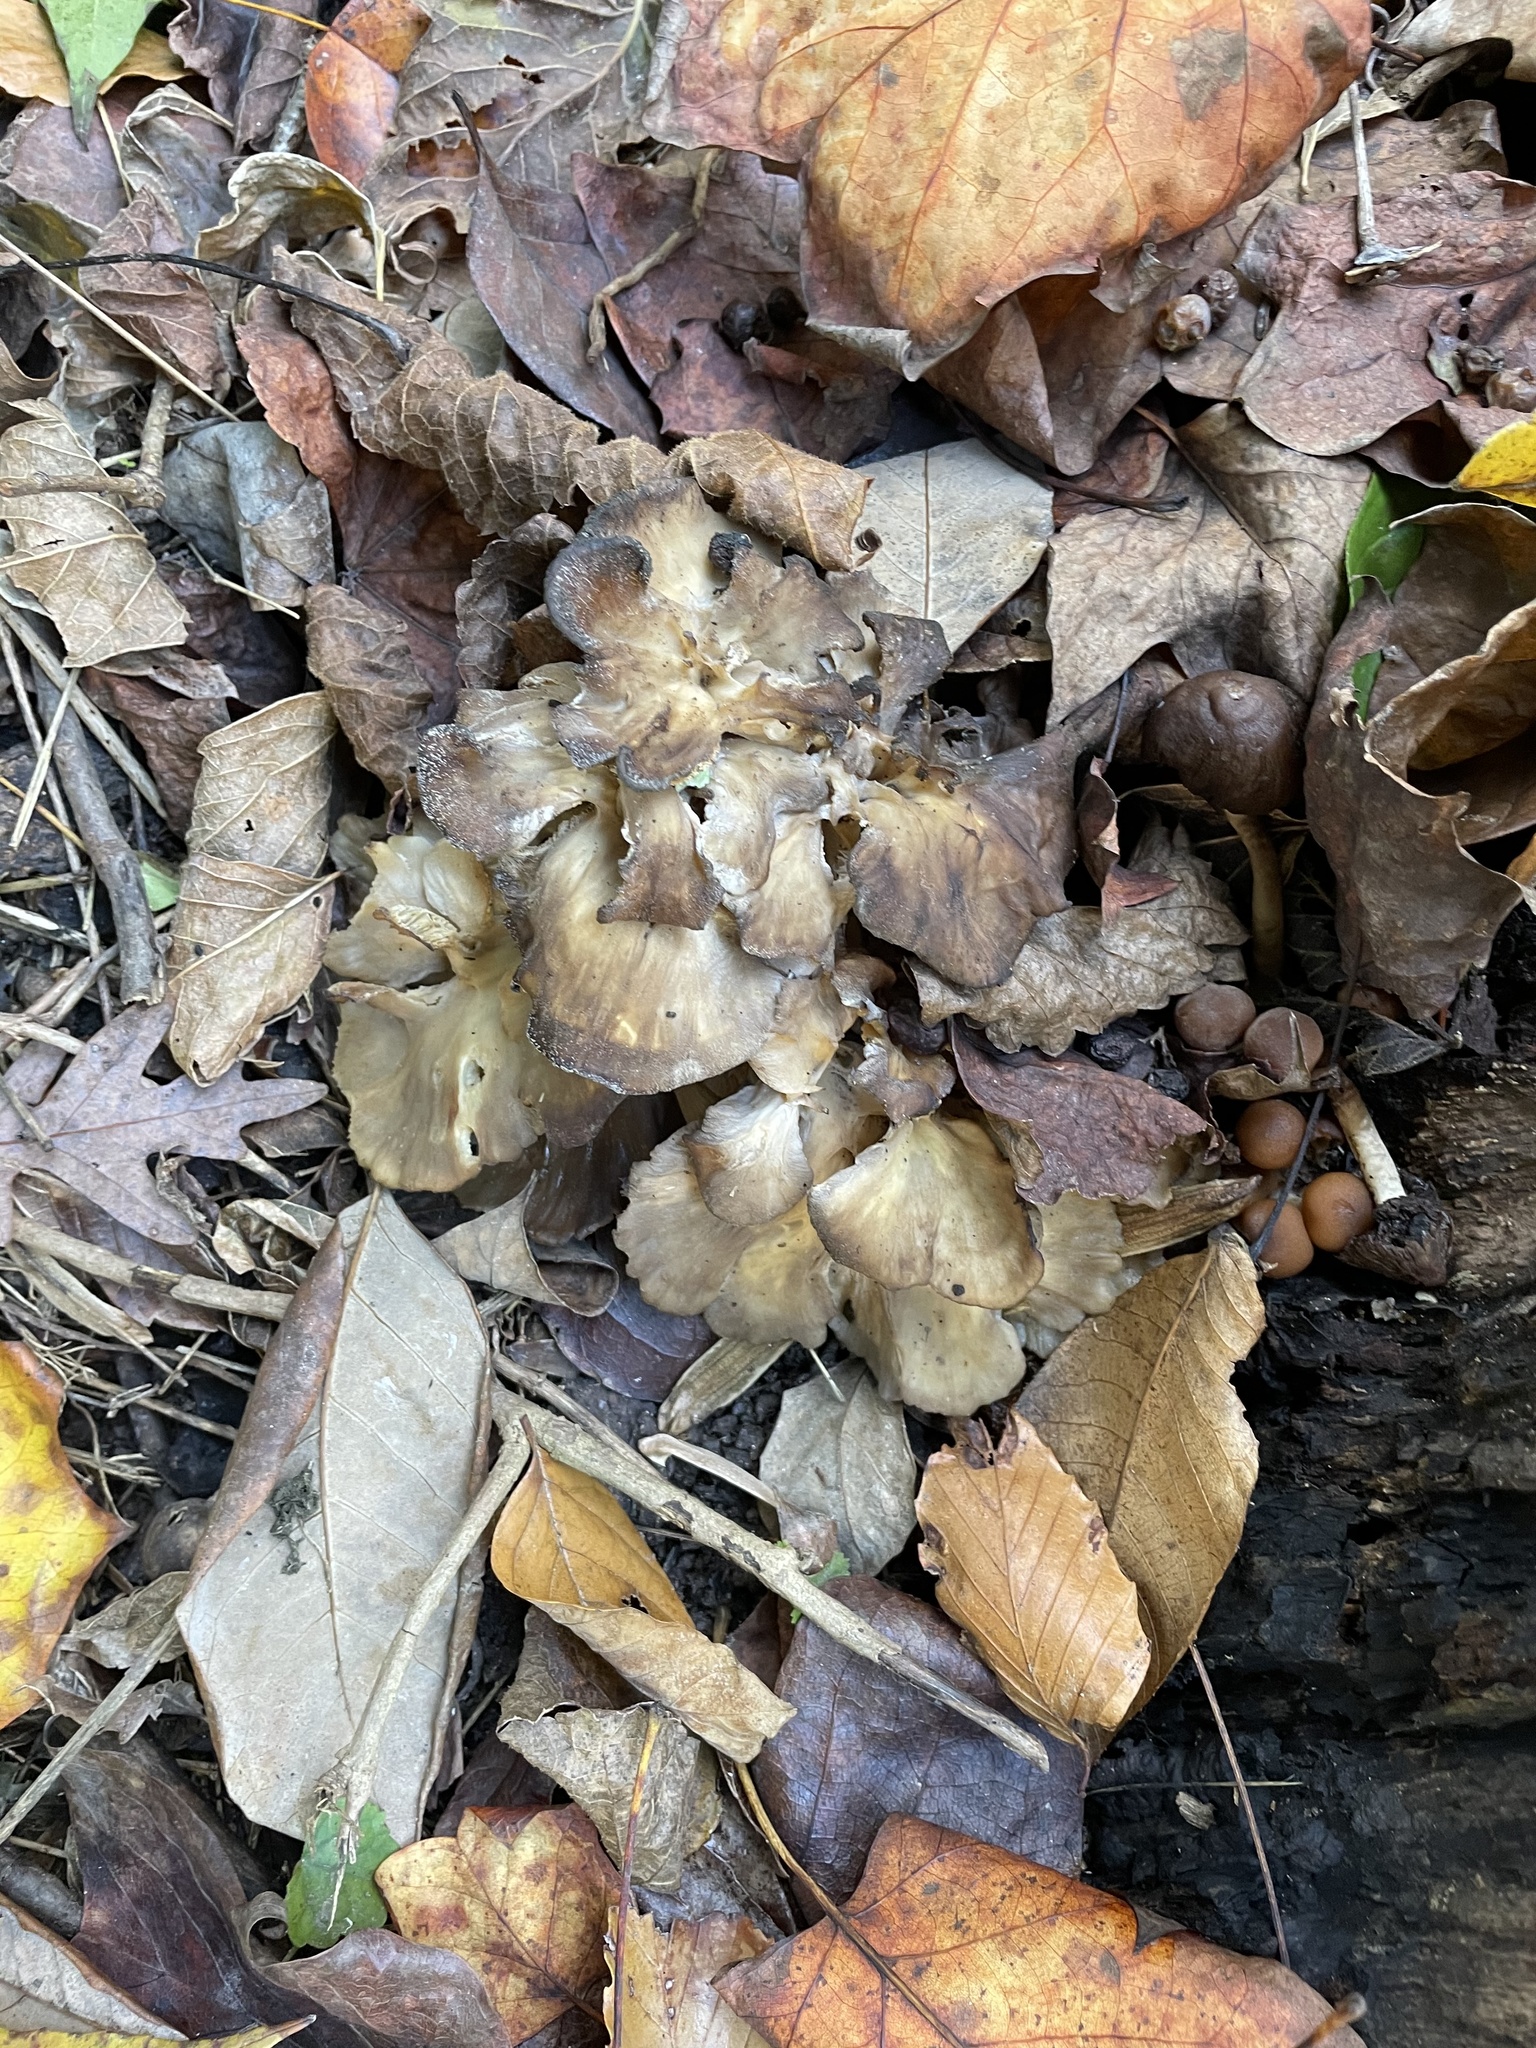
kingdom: Fungi
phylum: Basidiomycota
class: Agaricomycetes
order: Polyporales
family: Grifolaceae
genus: Grifola
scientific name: Grifola frondosa
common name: Hen of the woods
